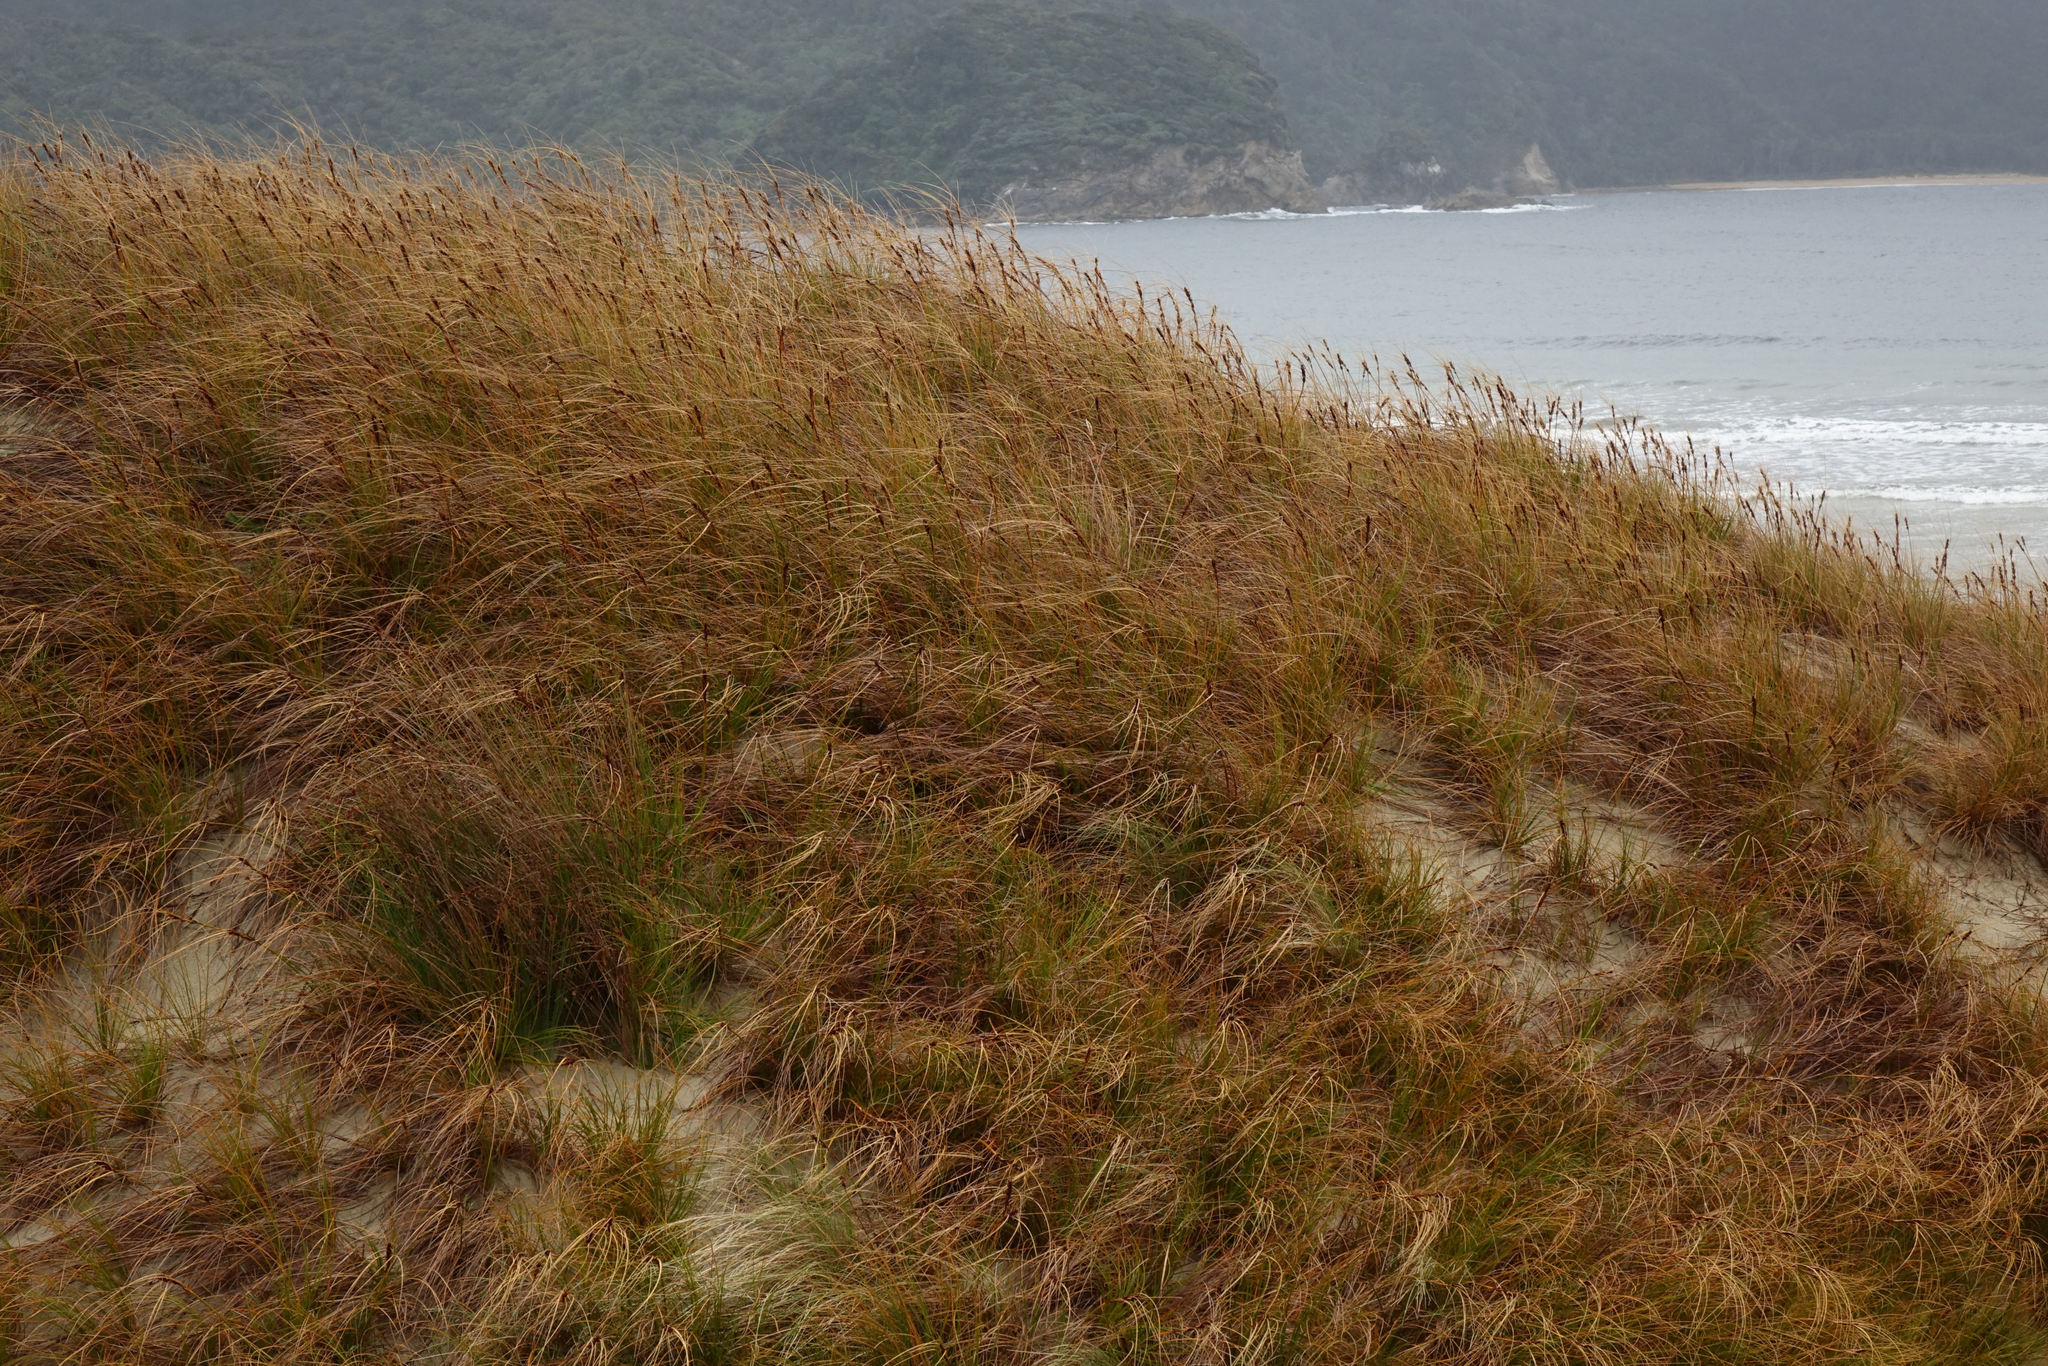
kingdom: Plantae
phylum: Tracheophyta
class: Liliopsida
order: Poales
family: Cyperaceae
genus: Ficinia
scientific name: Ficinia spiralis
